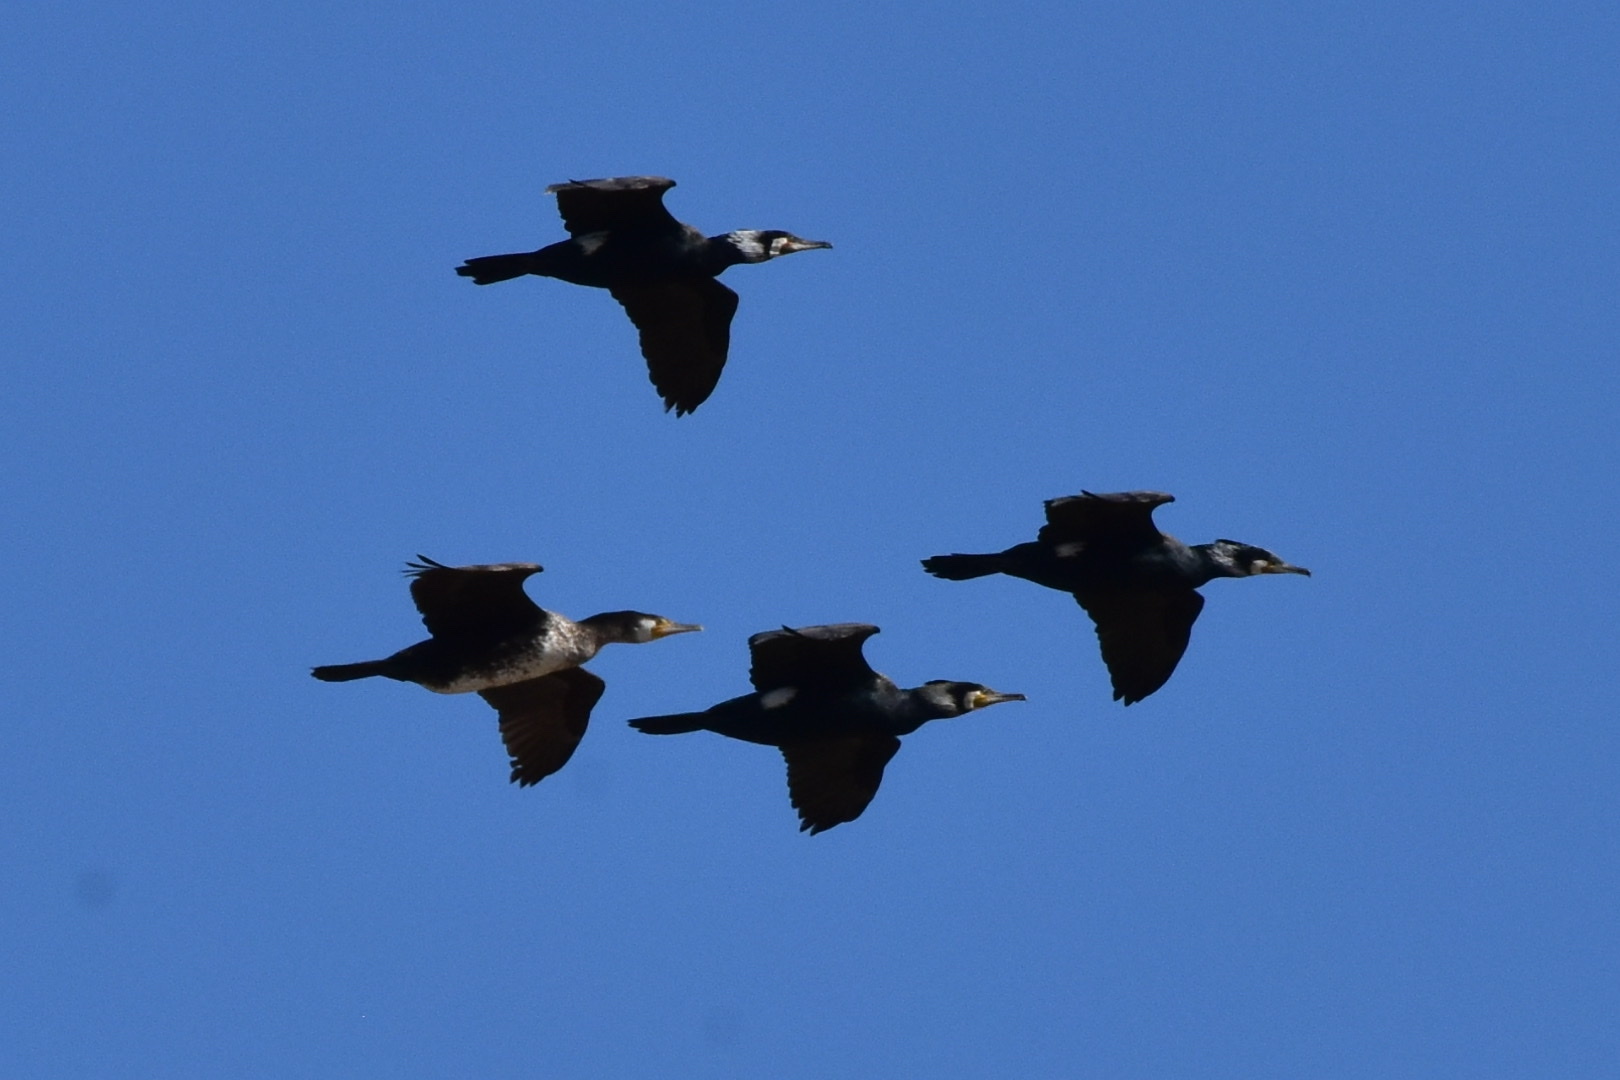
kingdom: Animalia
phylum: Chordata
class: Aves
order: Suliformes
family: Phalacrocoracidae
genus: Phalacrocorax
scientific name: Phalacrocorax carbo
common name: Great cormorant
